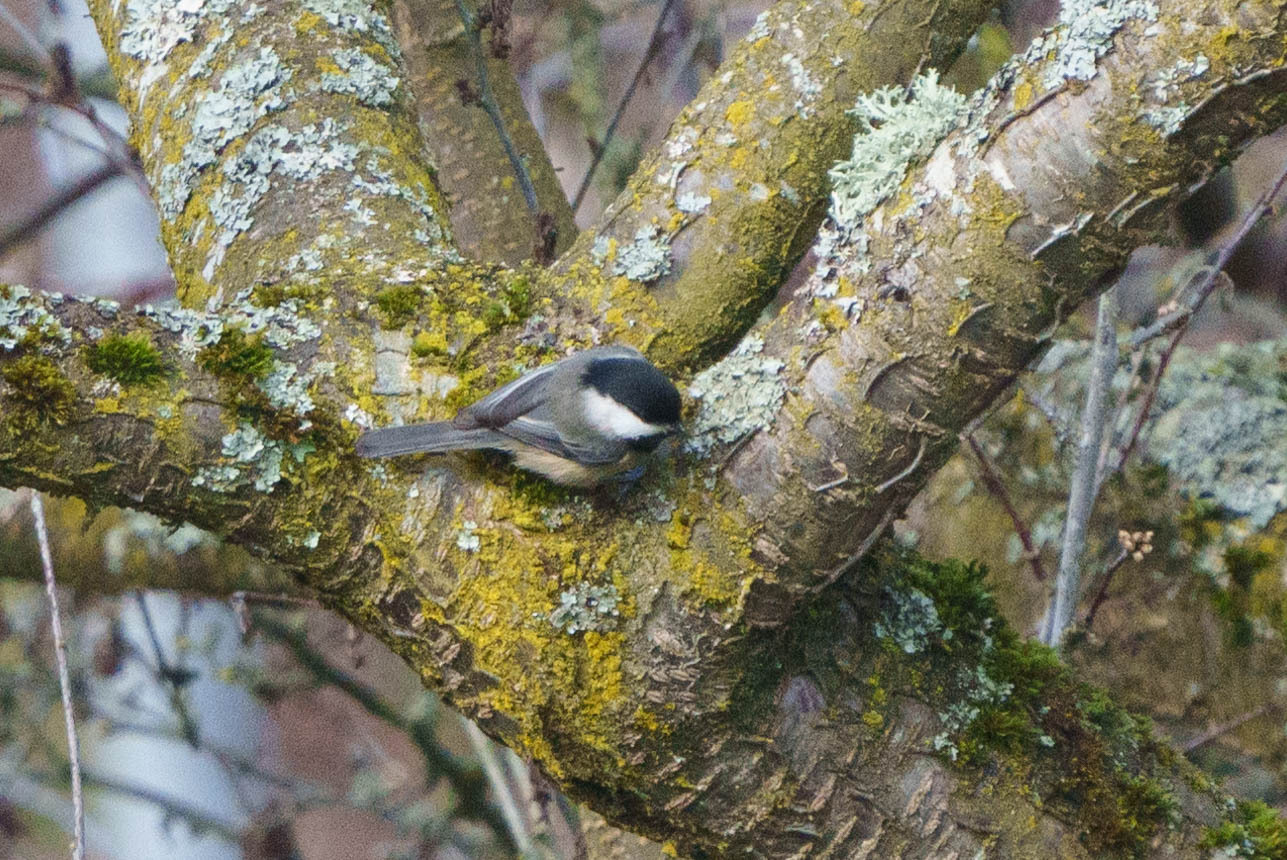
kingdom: Animalia
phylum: Chordata
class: Aves
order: Passeriformes
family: Paridae
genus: Poecile
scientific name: Poecile atricapillus
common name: Black-capped chickadee
